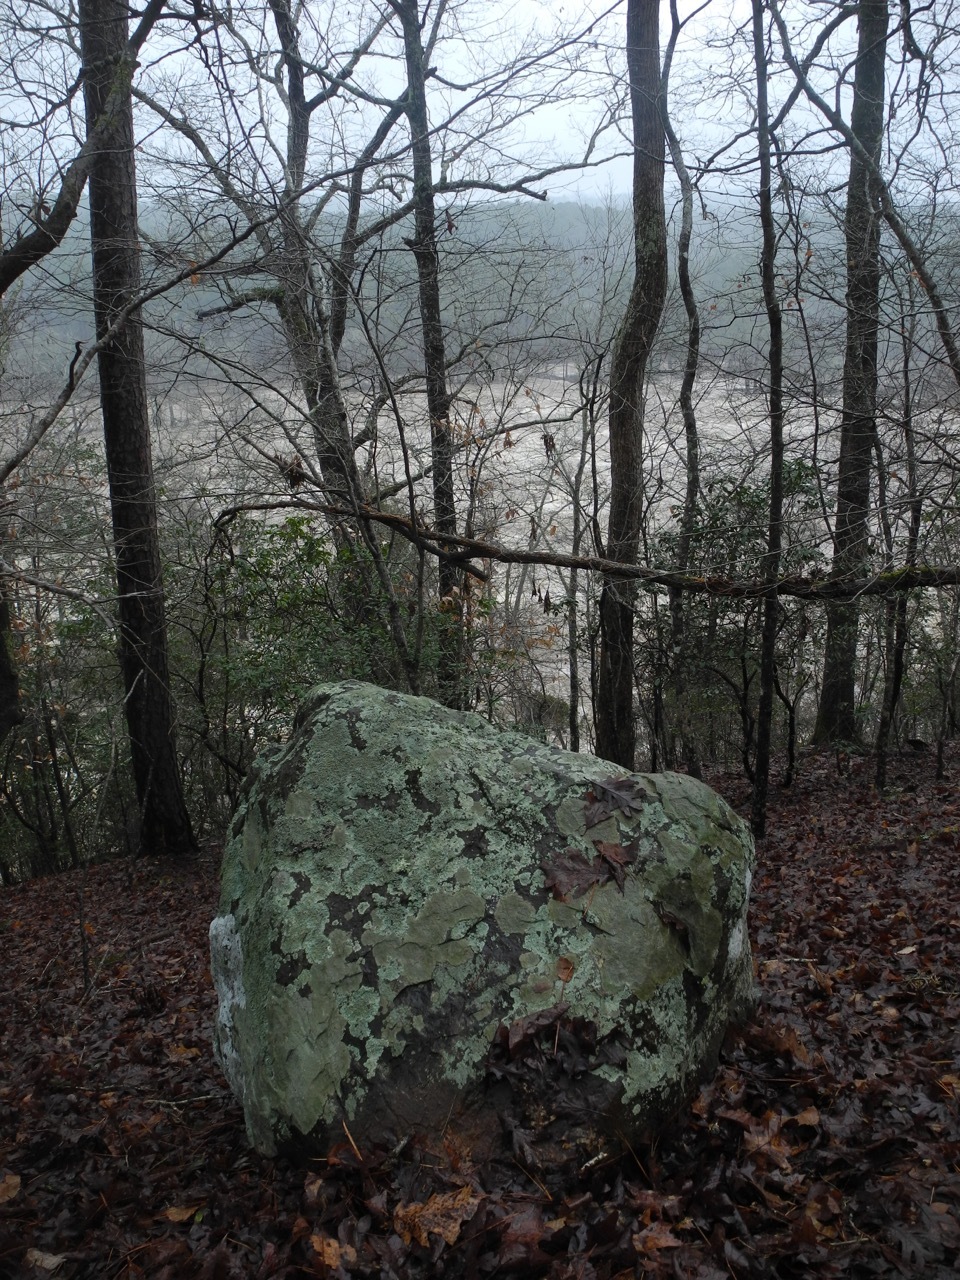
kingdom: Plantae
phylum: Tracheophyta
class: Magnoliopsida
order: Fagales
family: Fagaceae
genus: Quercus
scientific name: Quercus alba
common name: White oak
